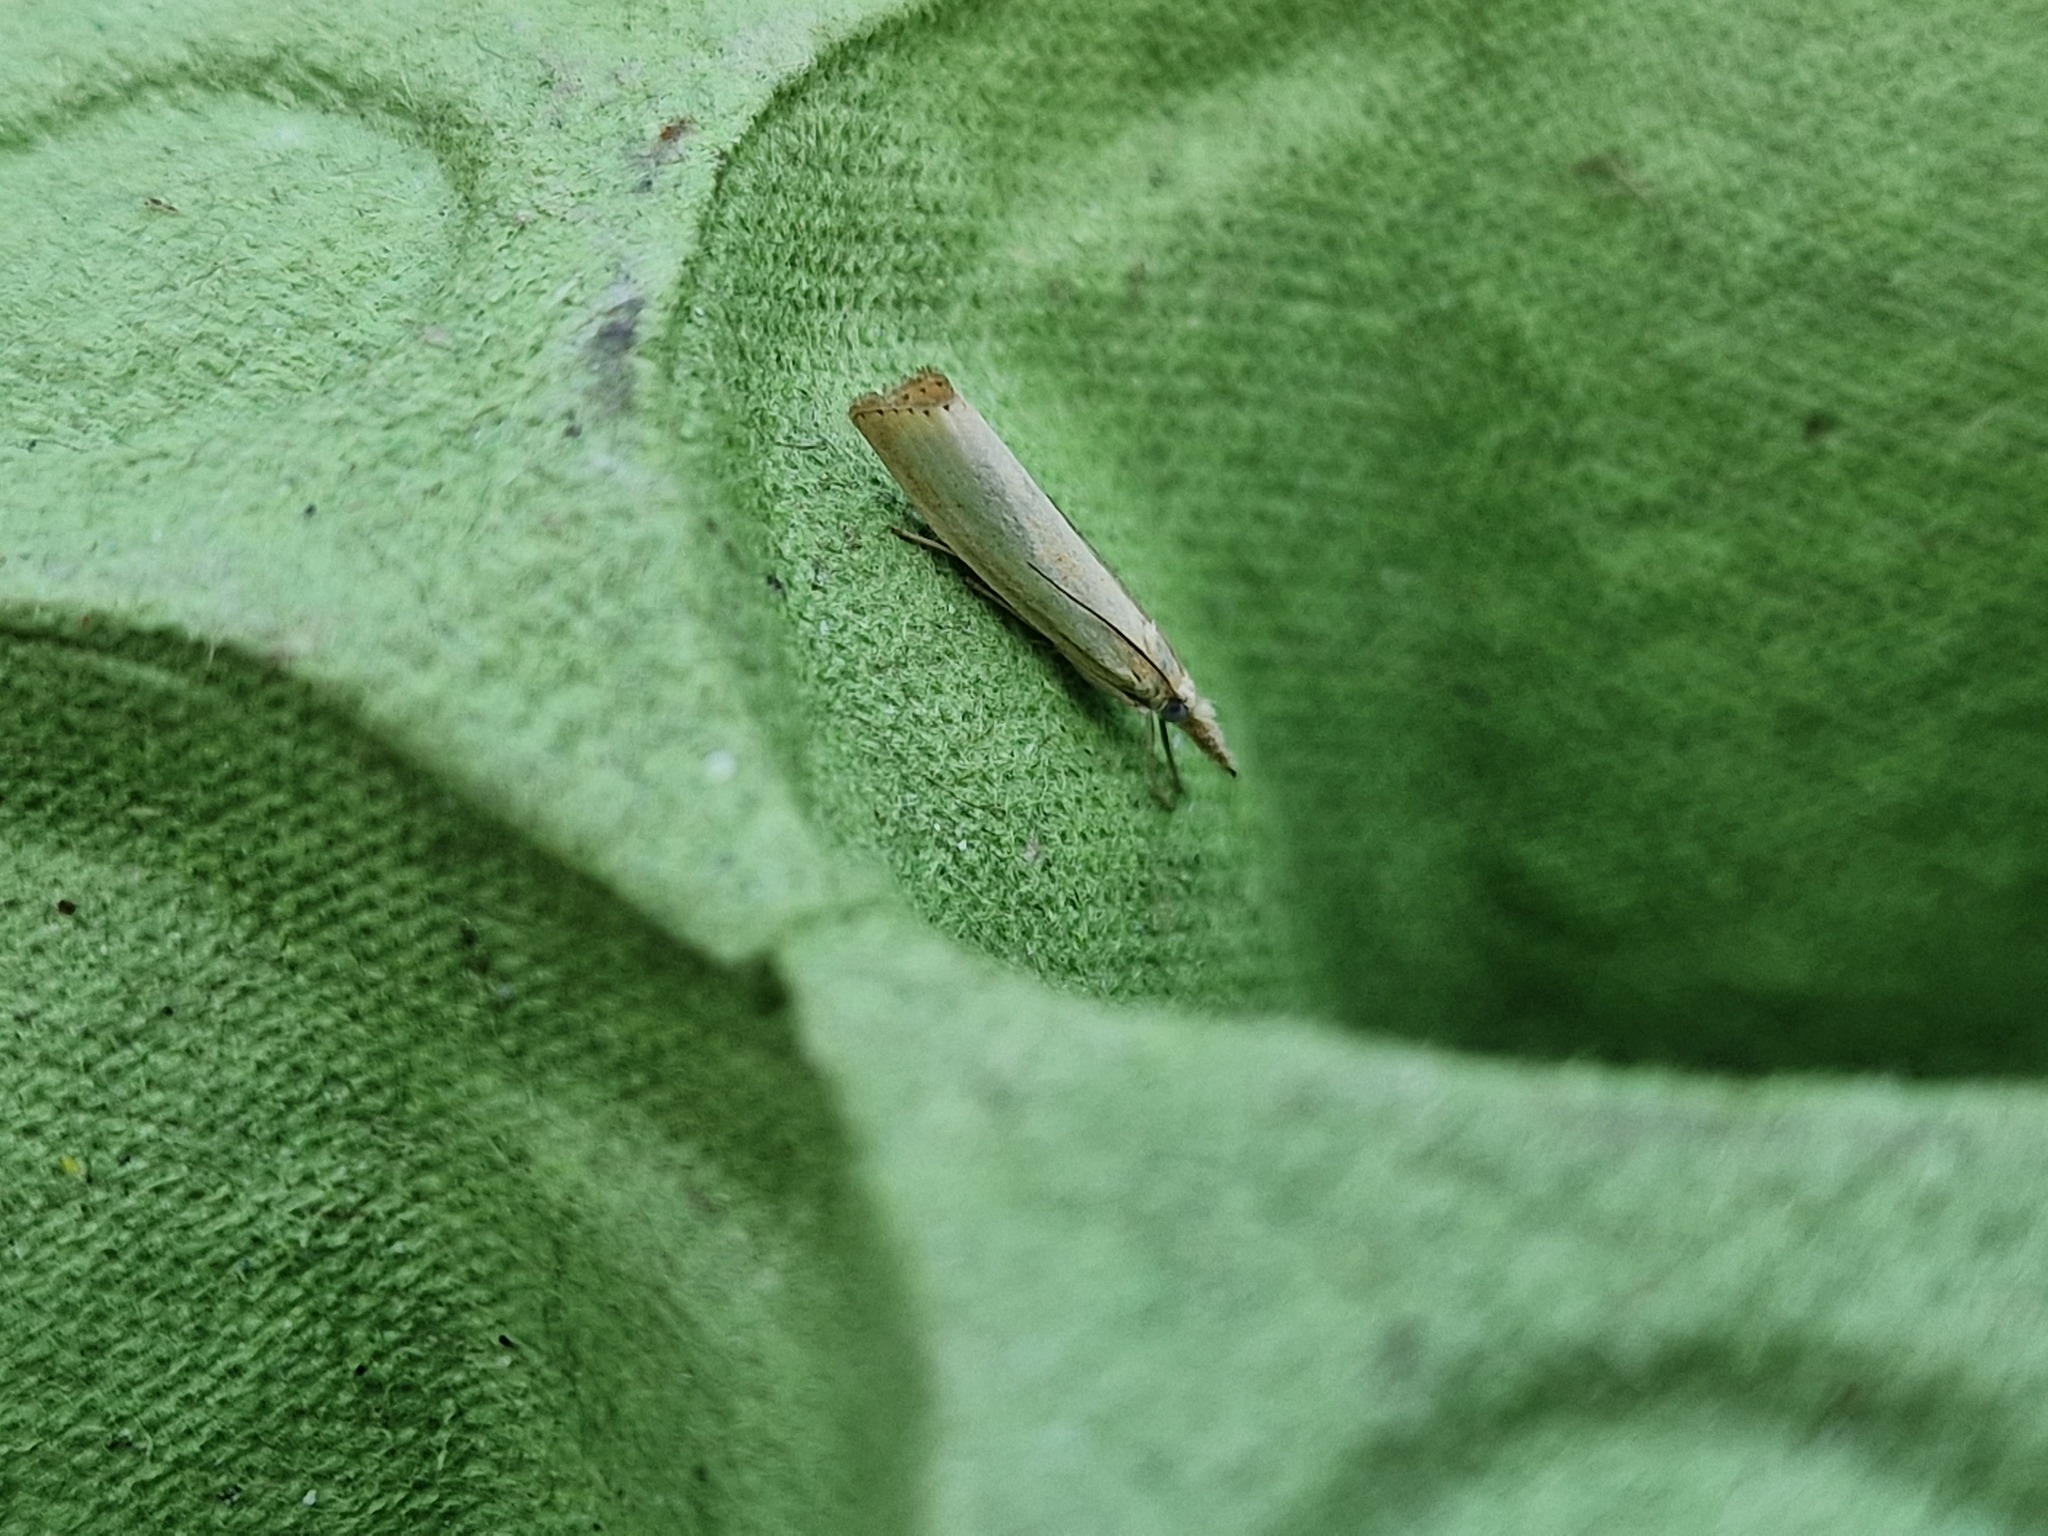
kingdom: Animalia
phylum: Arthropoda
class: Insecta
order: Lepidoptera
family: Crambidae
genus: Agriphila
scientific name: Agriphila straminella
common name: Straw grass-veneer
